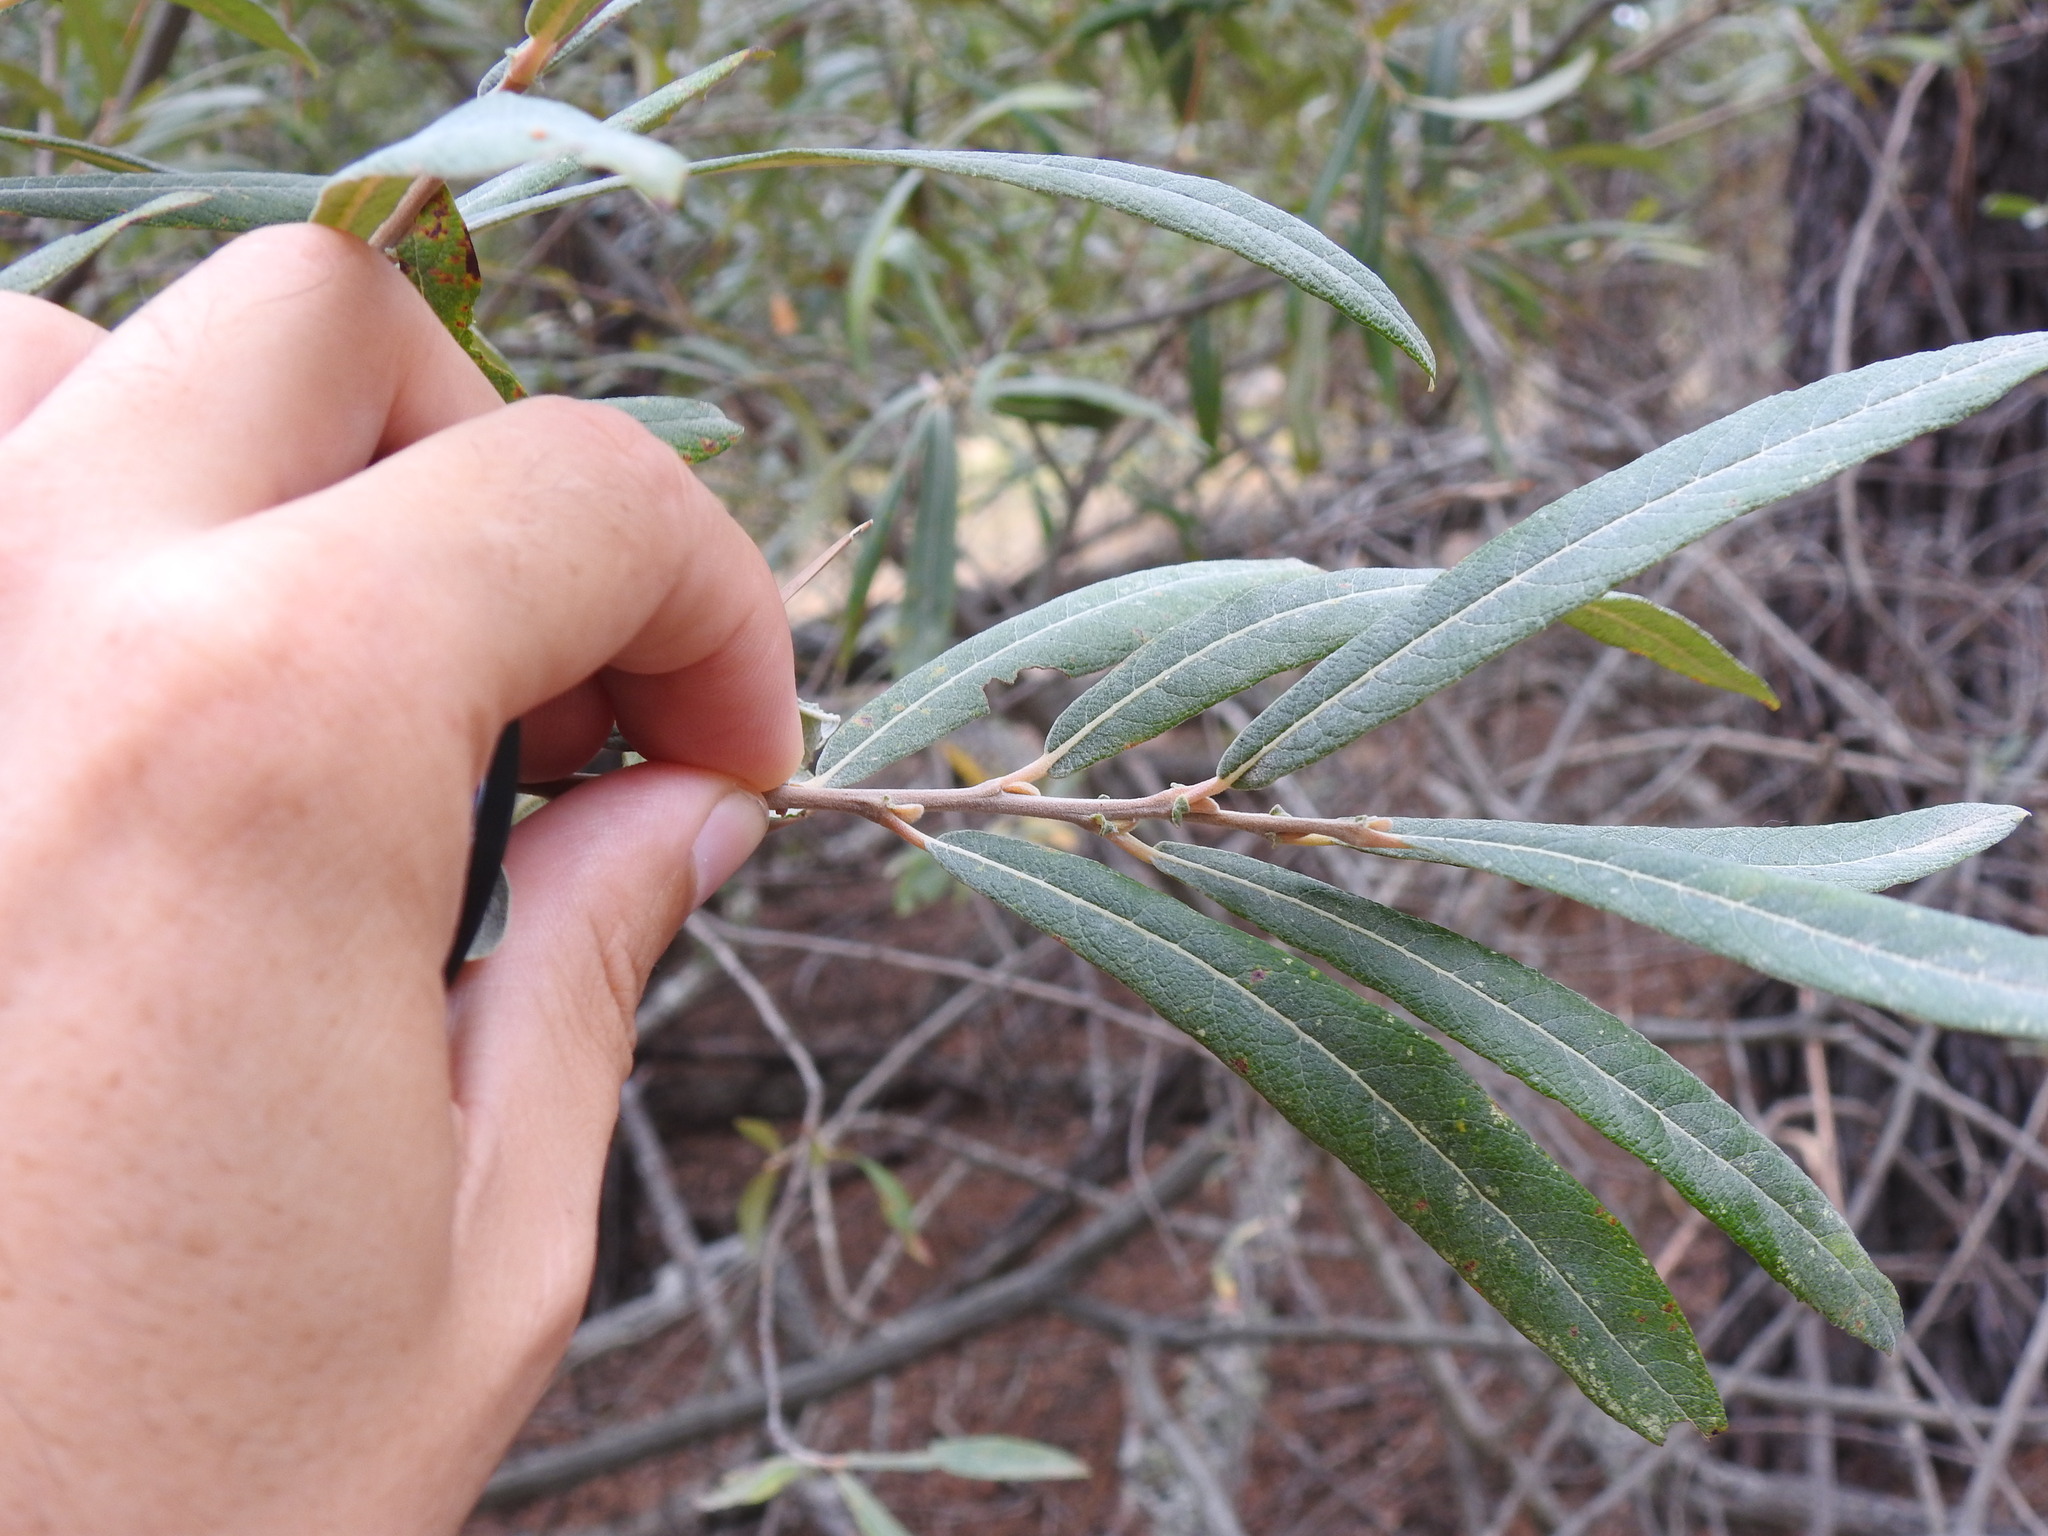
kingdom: Plantae
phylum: Tracheophyta
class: Magnoliopsida
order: Malpighiales
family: Salicaceae
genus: Salix
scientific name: Salix salviifolia
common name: Salvia-leaf willow
